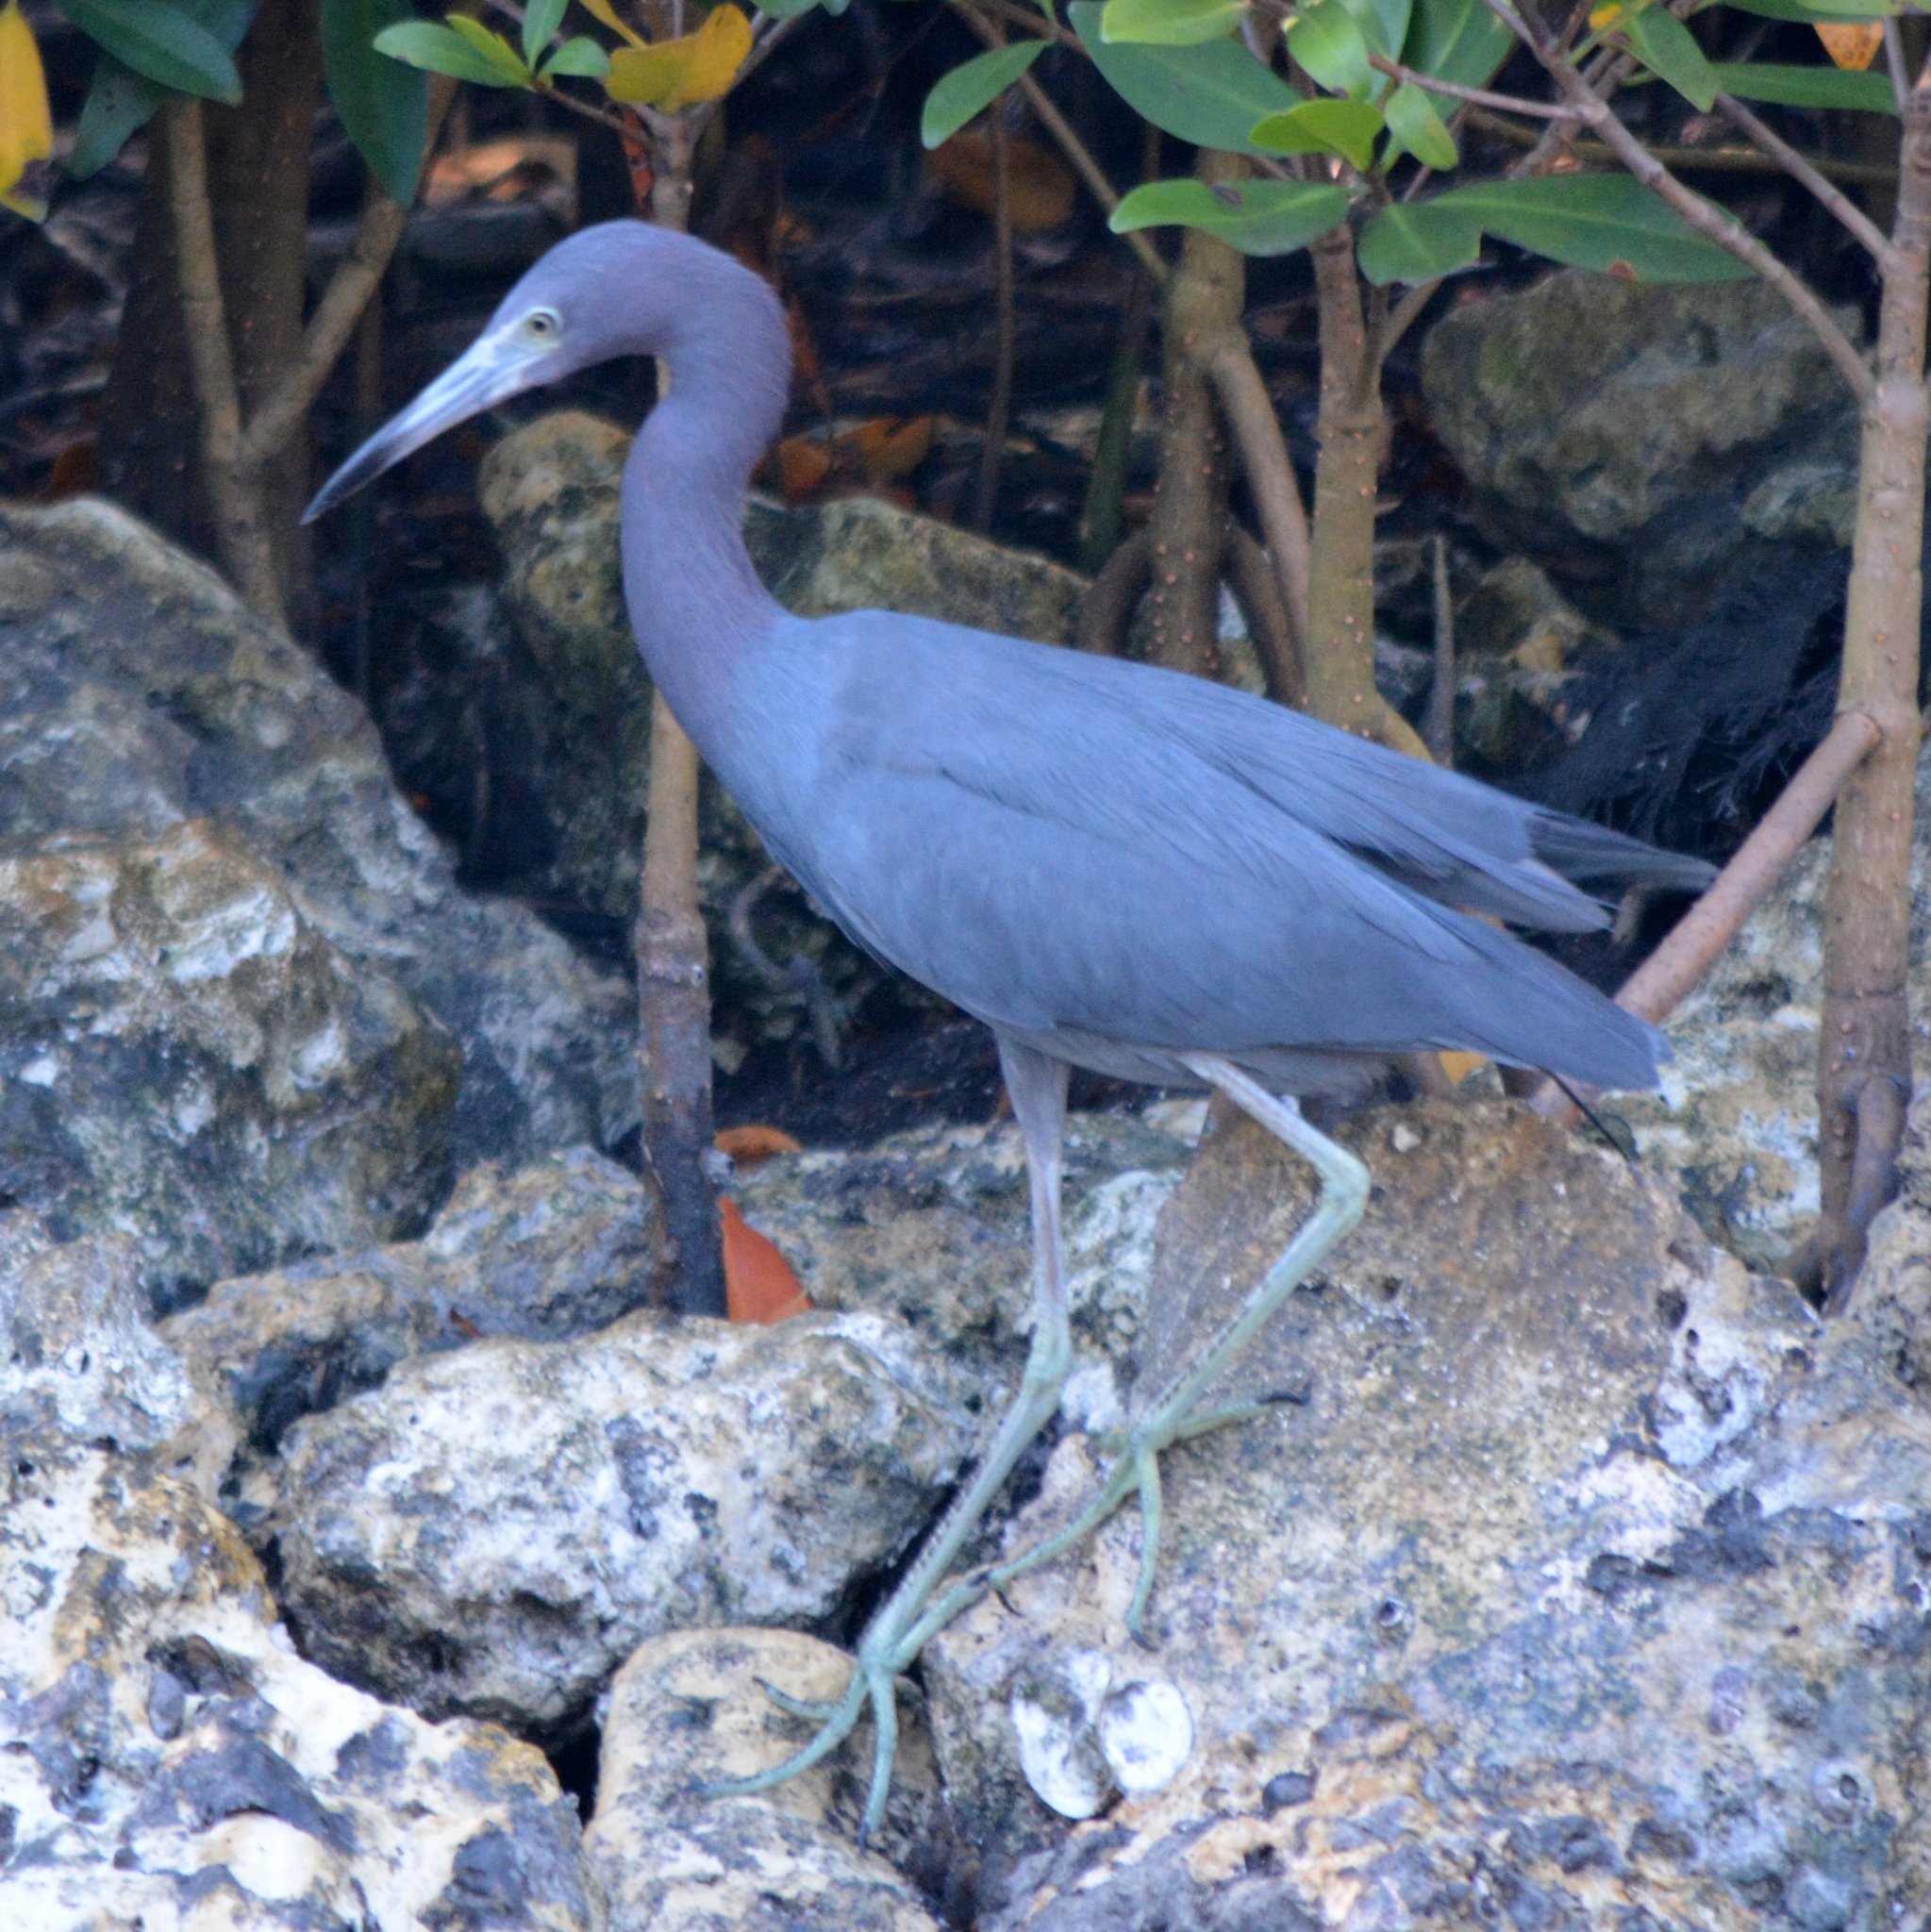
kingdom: Animalia
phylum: Chordata
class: Aves
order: Pelecaniformes
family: Ardeidae
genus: Egretta
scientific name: Egretta caerulea
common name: Little blue heron
